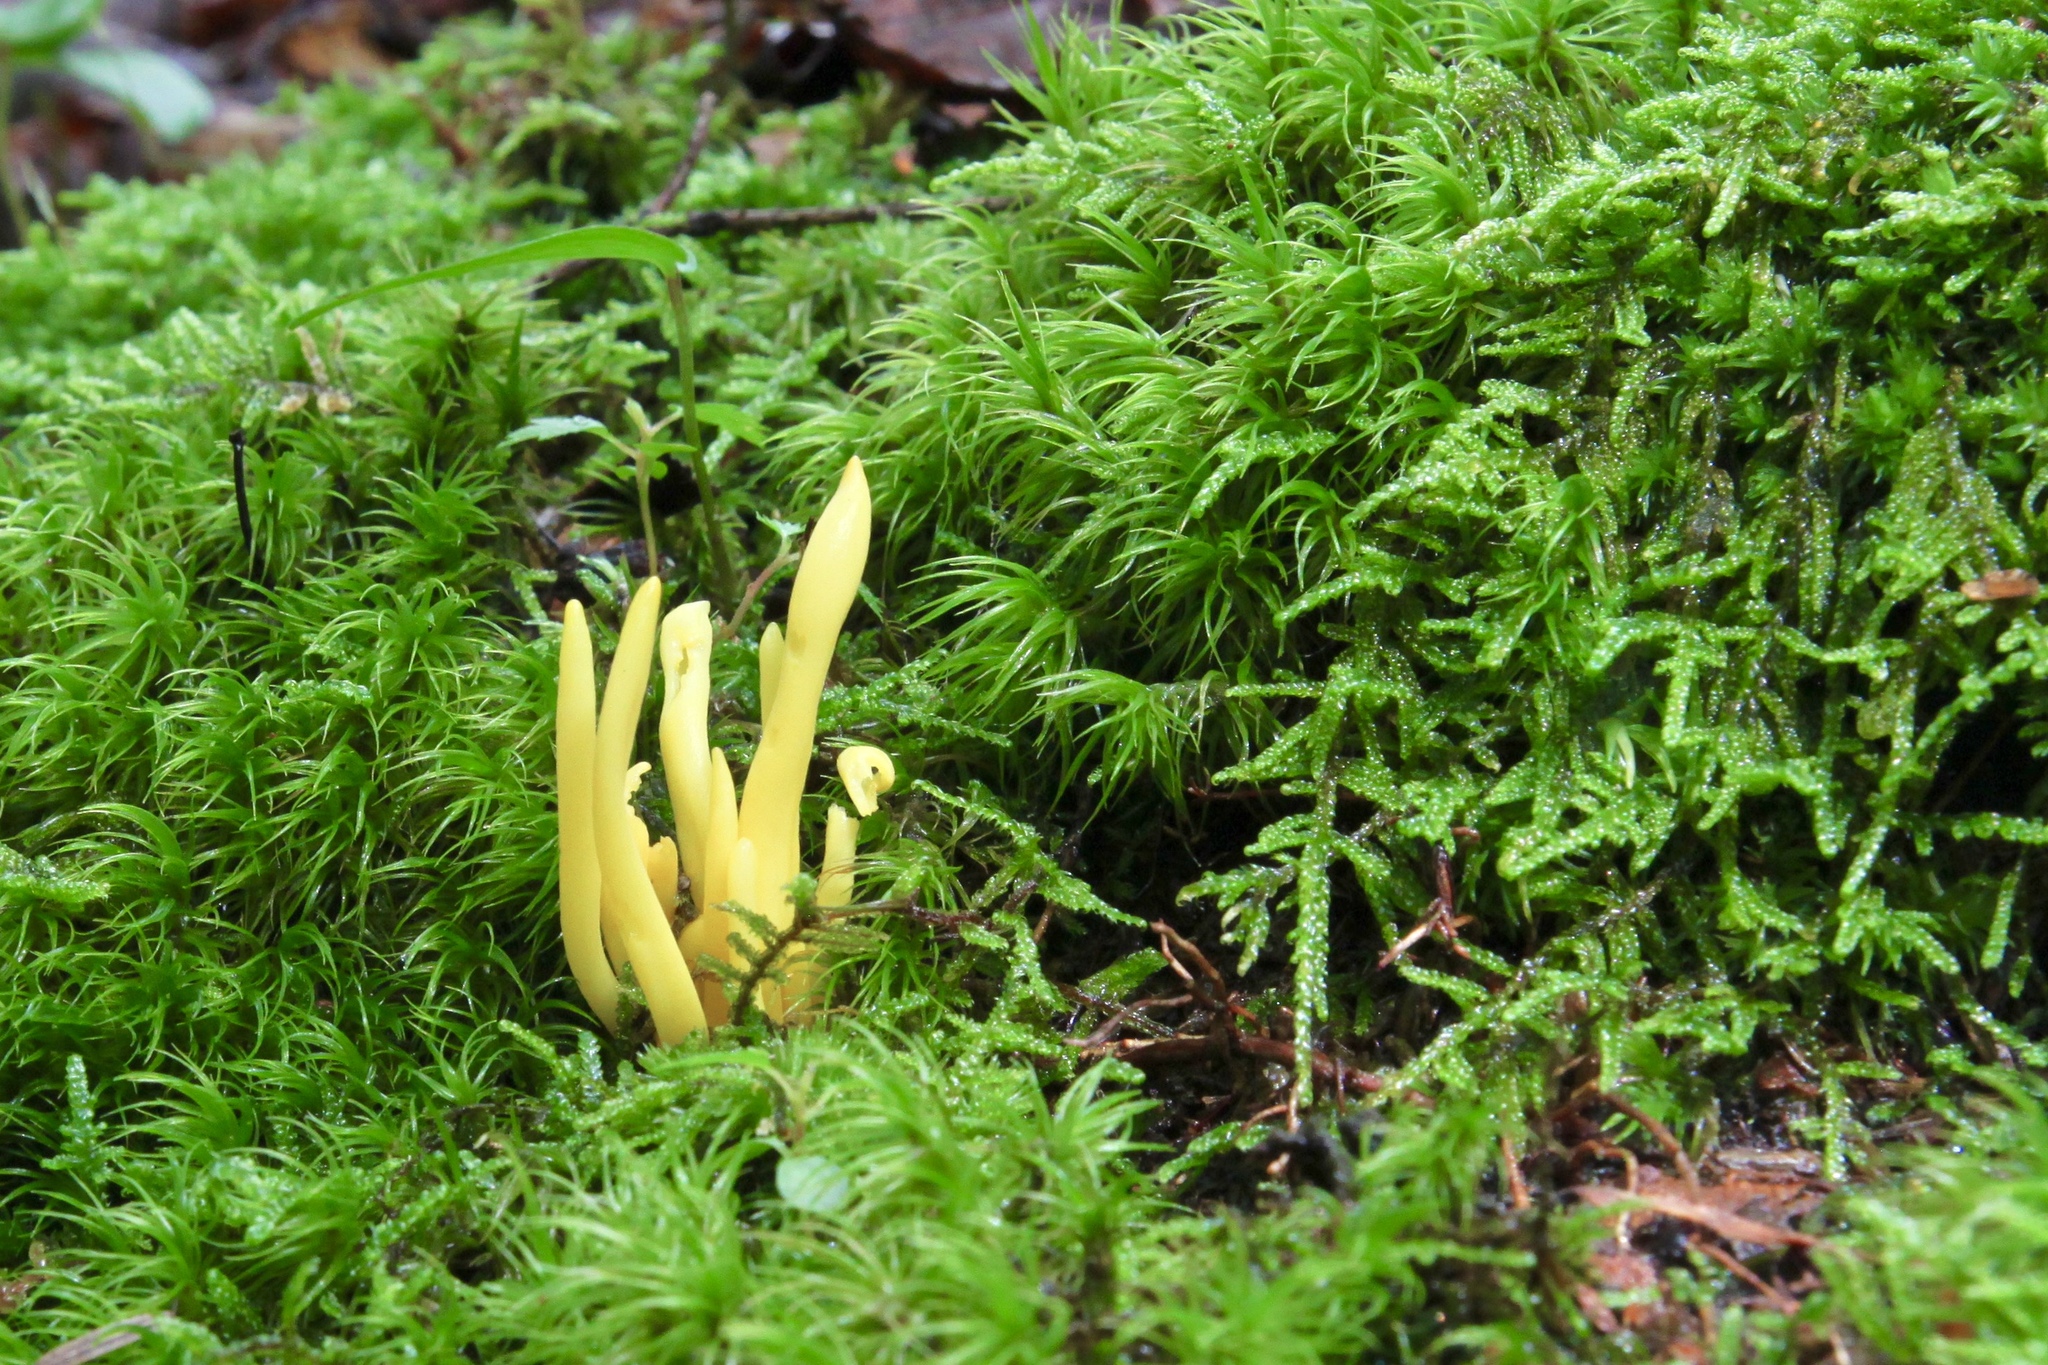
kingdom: Fungi
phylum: Basidiomycota
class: Agaricomycetes
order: Agaricales
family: Clavariaceae
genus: Clavulinopsis
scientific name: Clavulinopsis fusiformis
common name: Golden spindles
